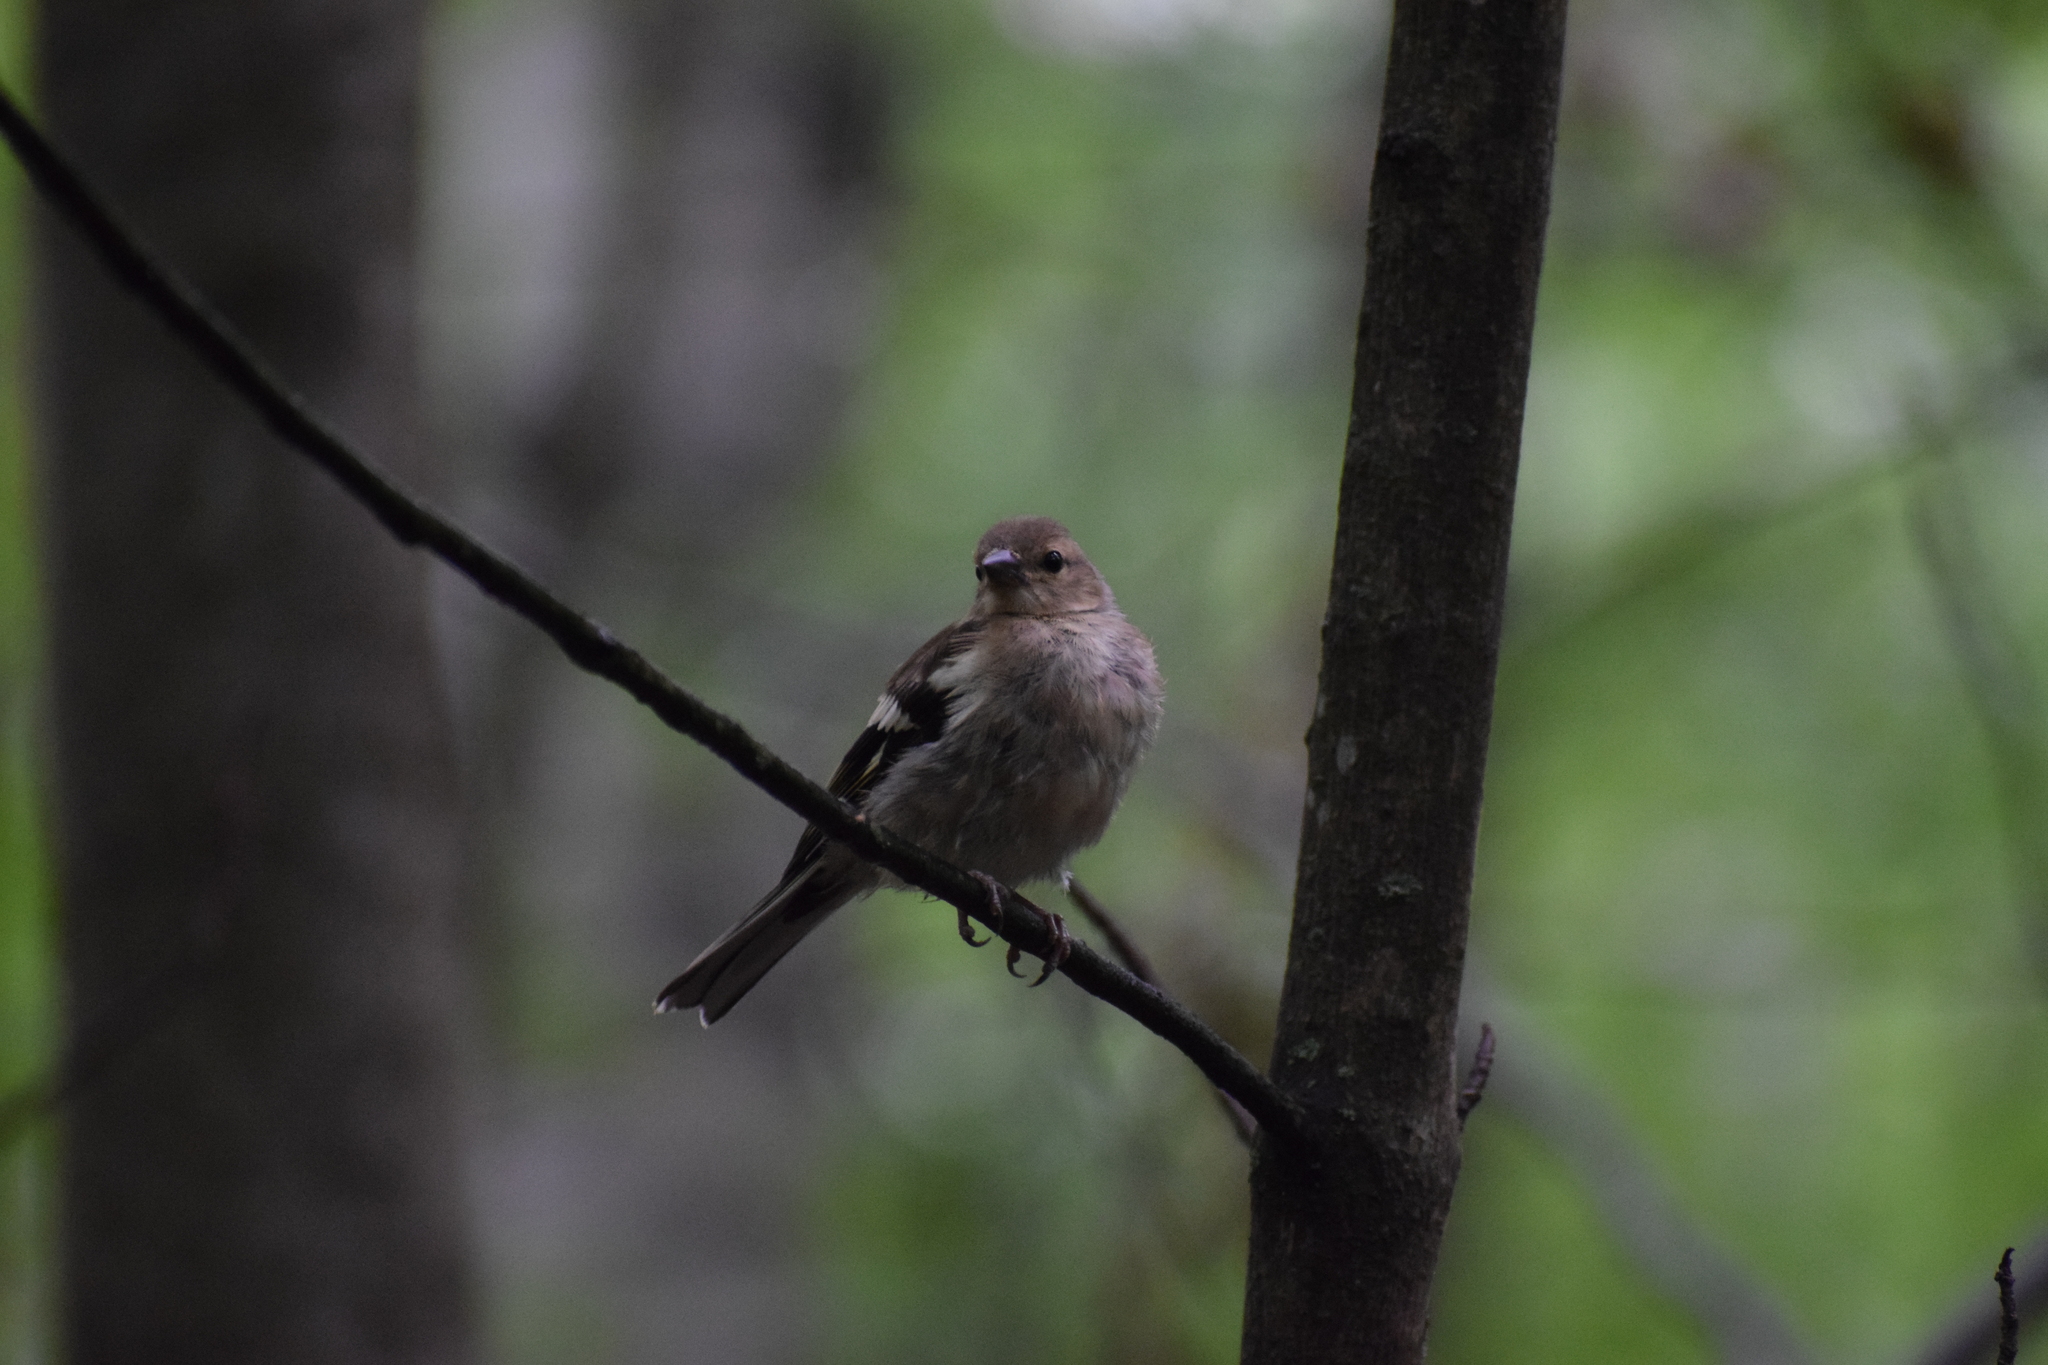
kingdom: Animalia
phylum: Chordata
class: Aves
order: Passeriformes
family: Fringillidae
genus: Fringilla
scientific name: Fringilla coelebs
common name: Common chaffinch
